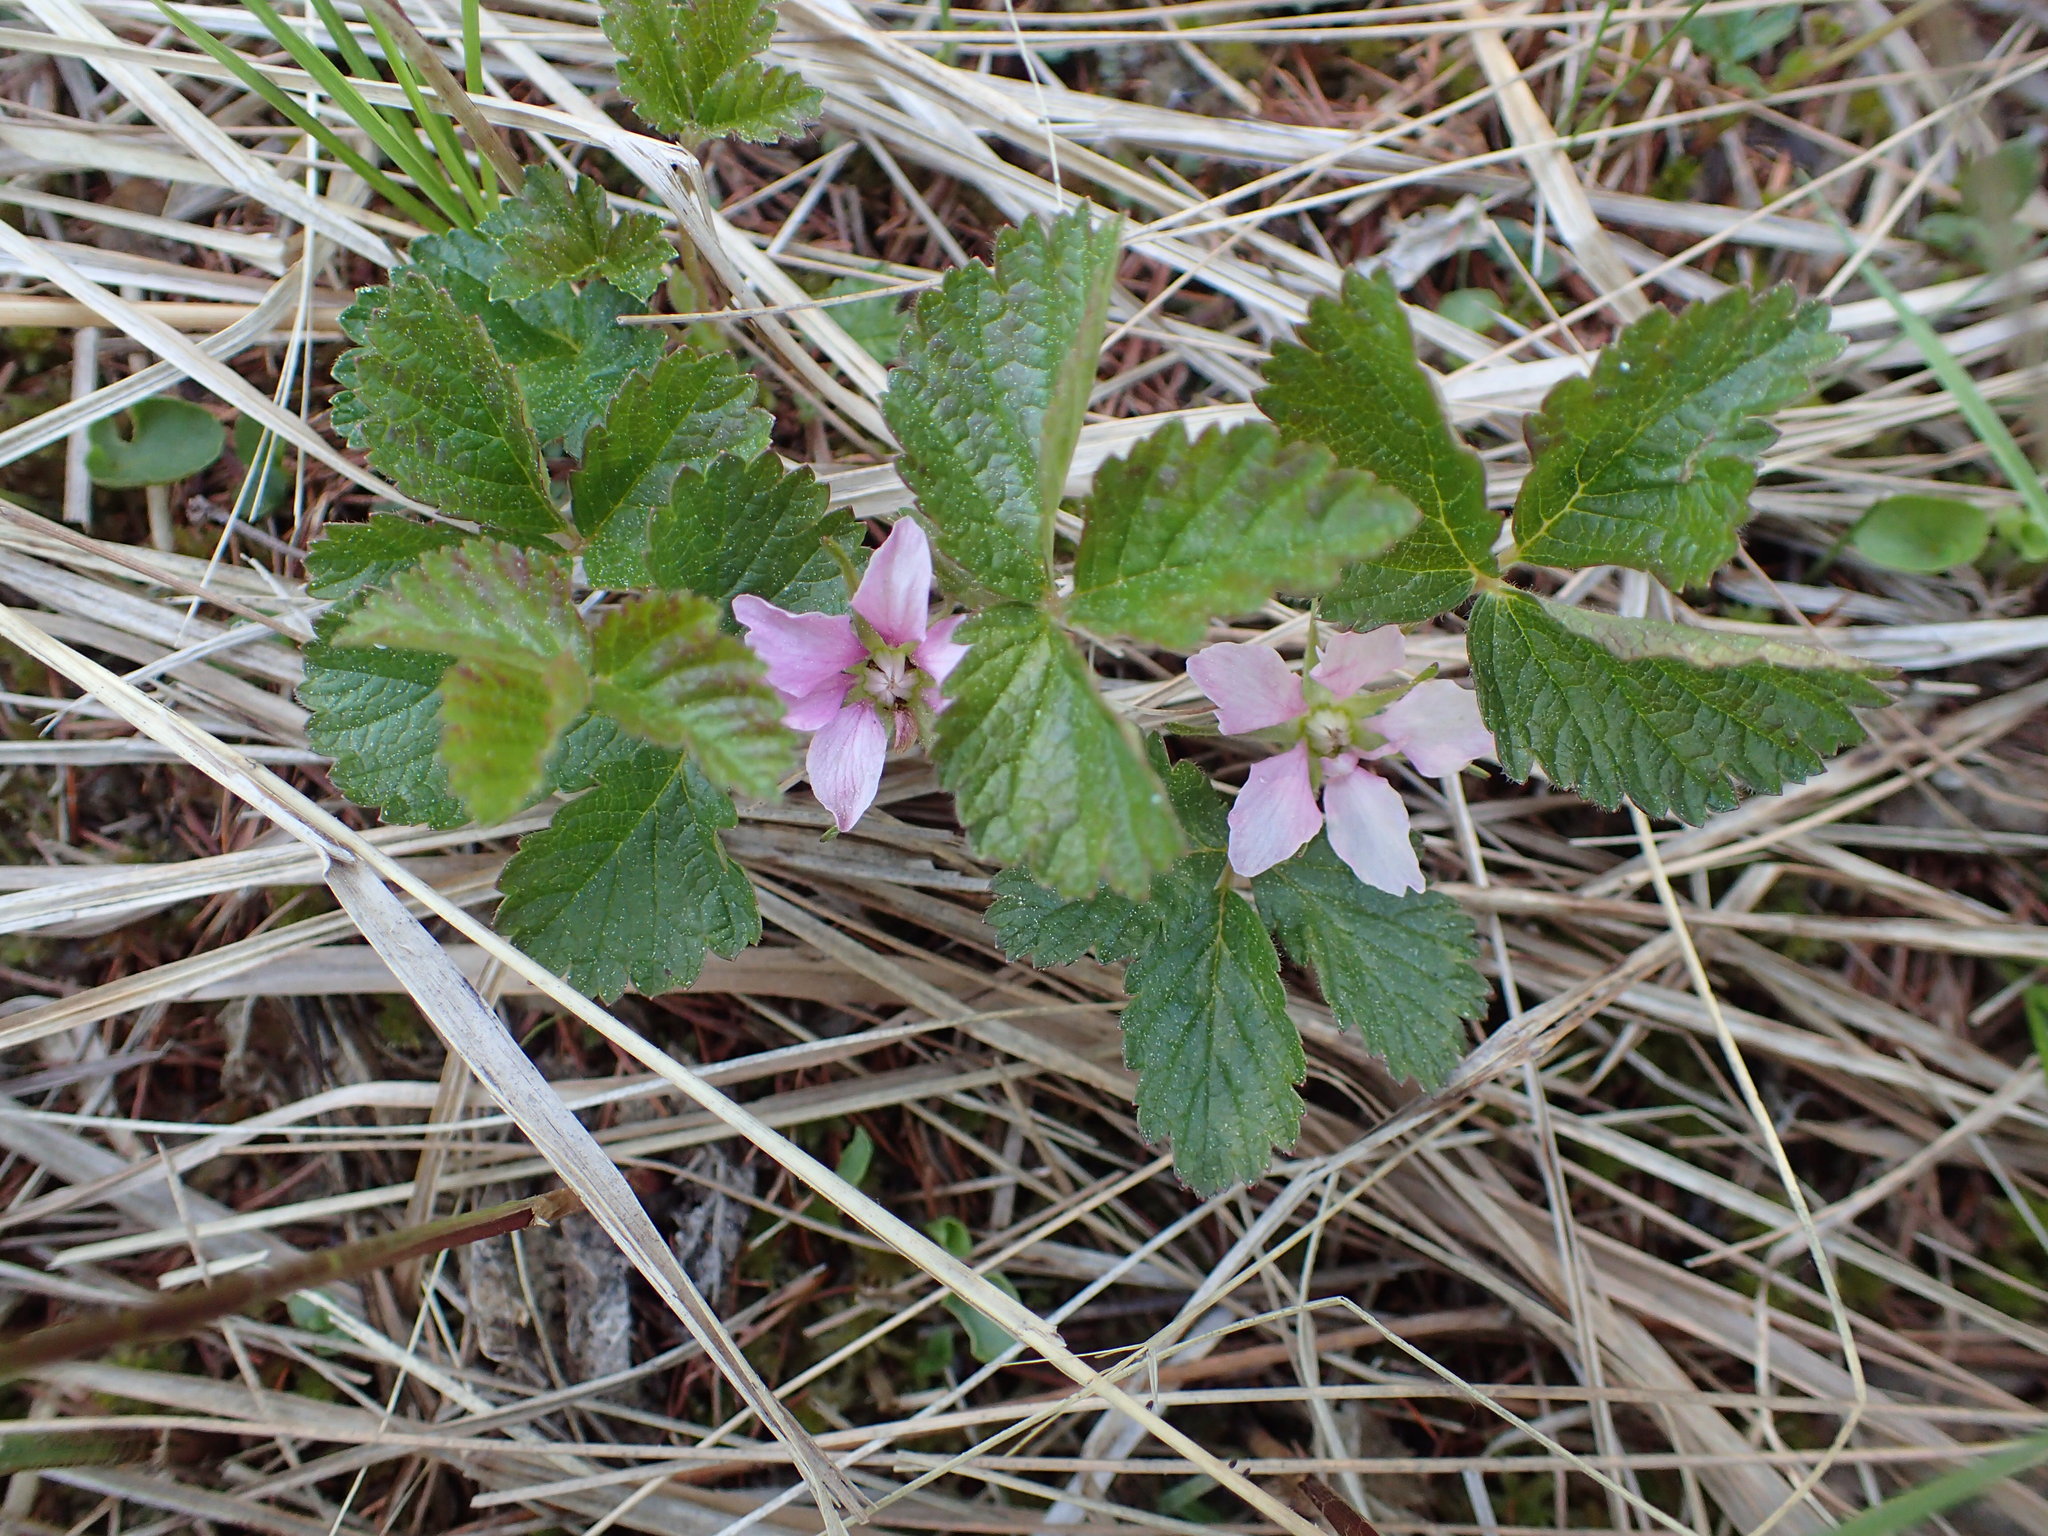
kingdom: Plantae
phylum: Tracheophyta
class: Magnoliopsida
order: Rosales
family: Rosaceae
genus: Rubus
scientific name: Rubus arcticus
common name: Arctic bramble
